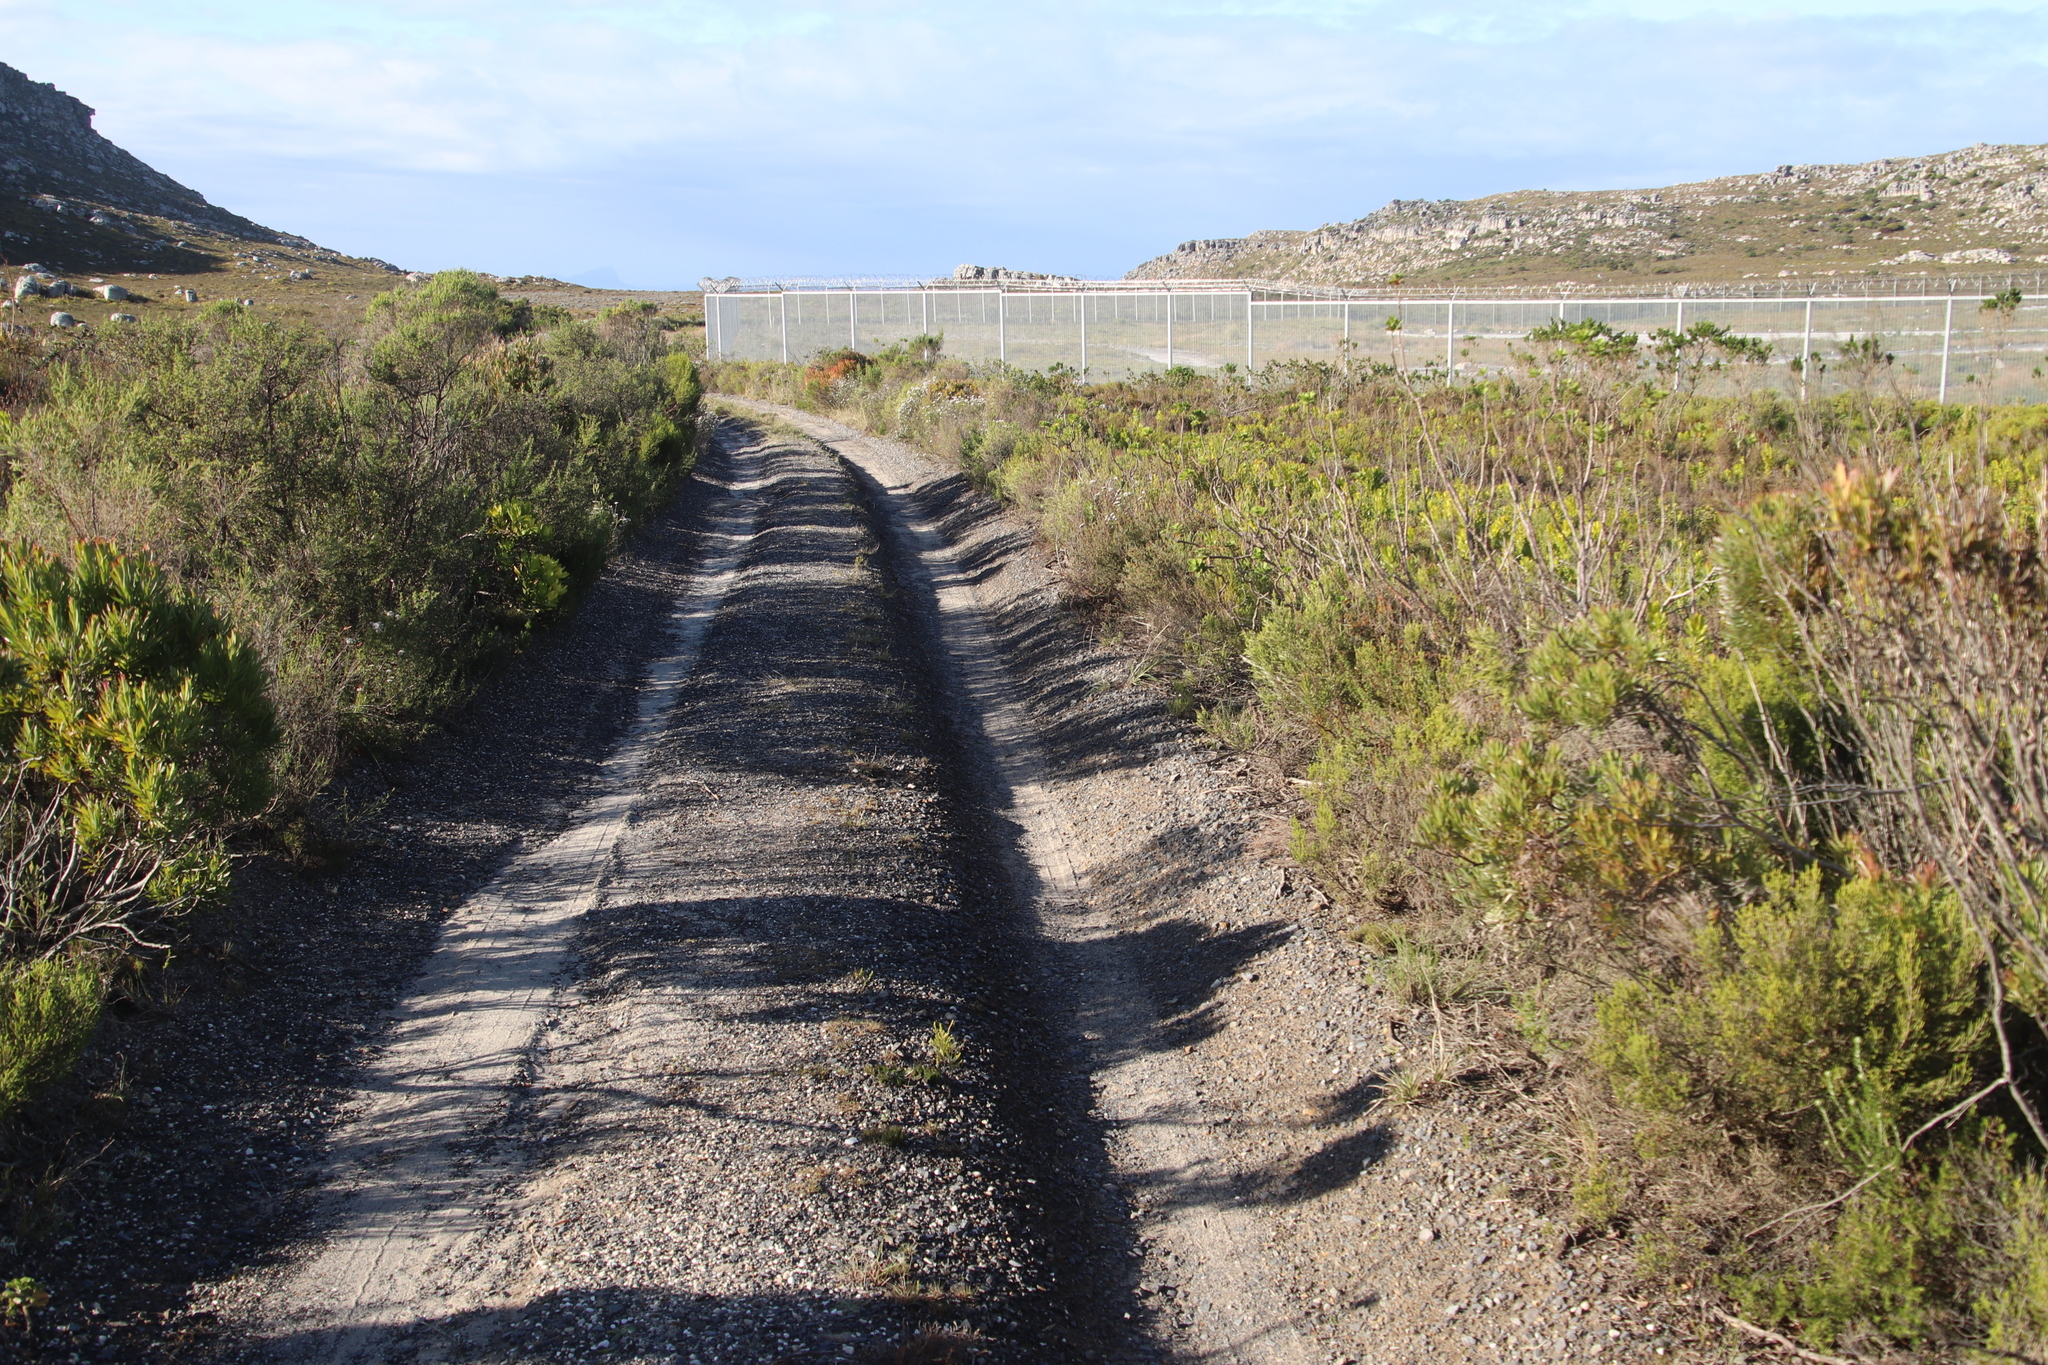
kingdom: Plantae
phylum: Tracheophyta
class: Magnoliopsida
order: Proteales
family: Proteaceae
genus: Leucadendron
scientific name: Leucadendron xanthoconus
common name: Sickle-leaf conebush
